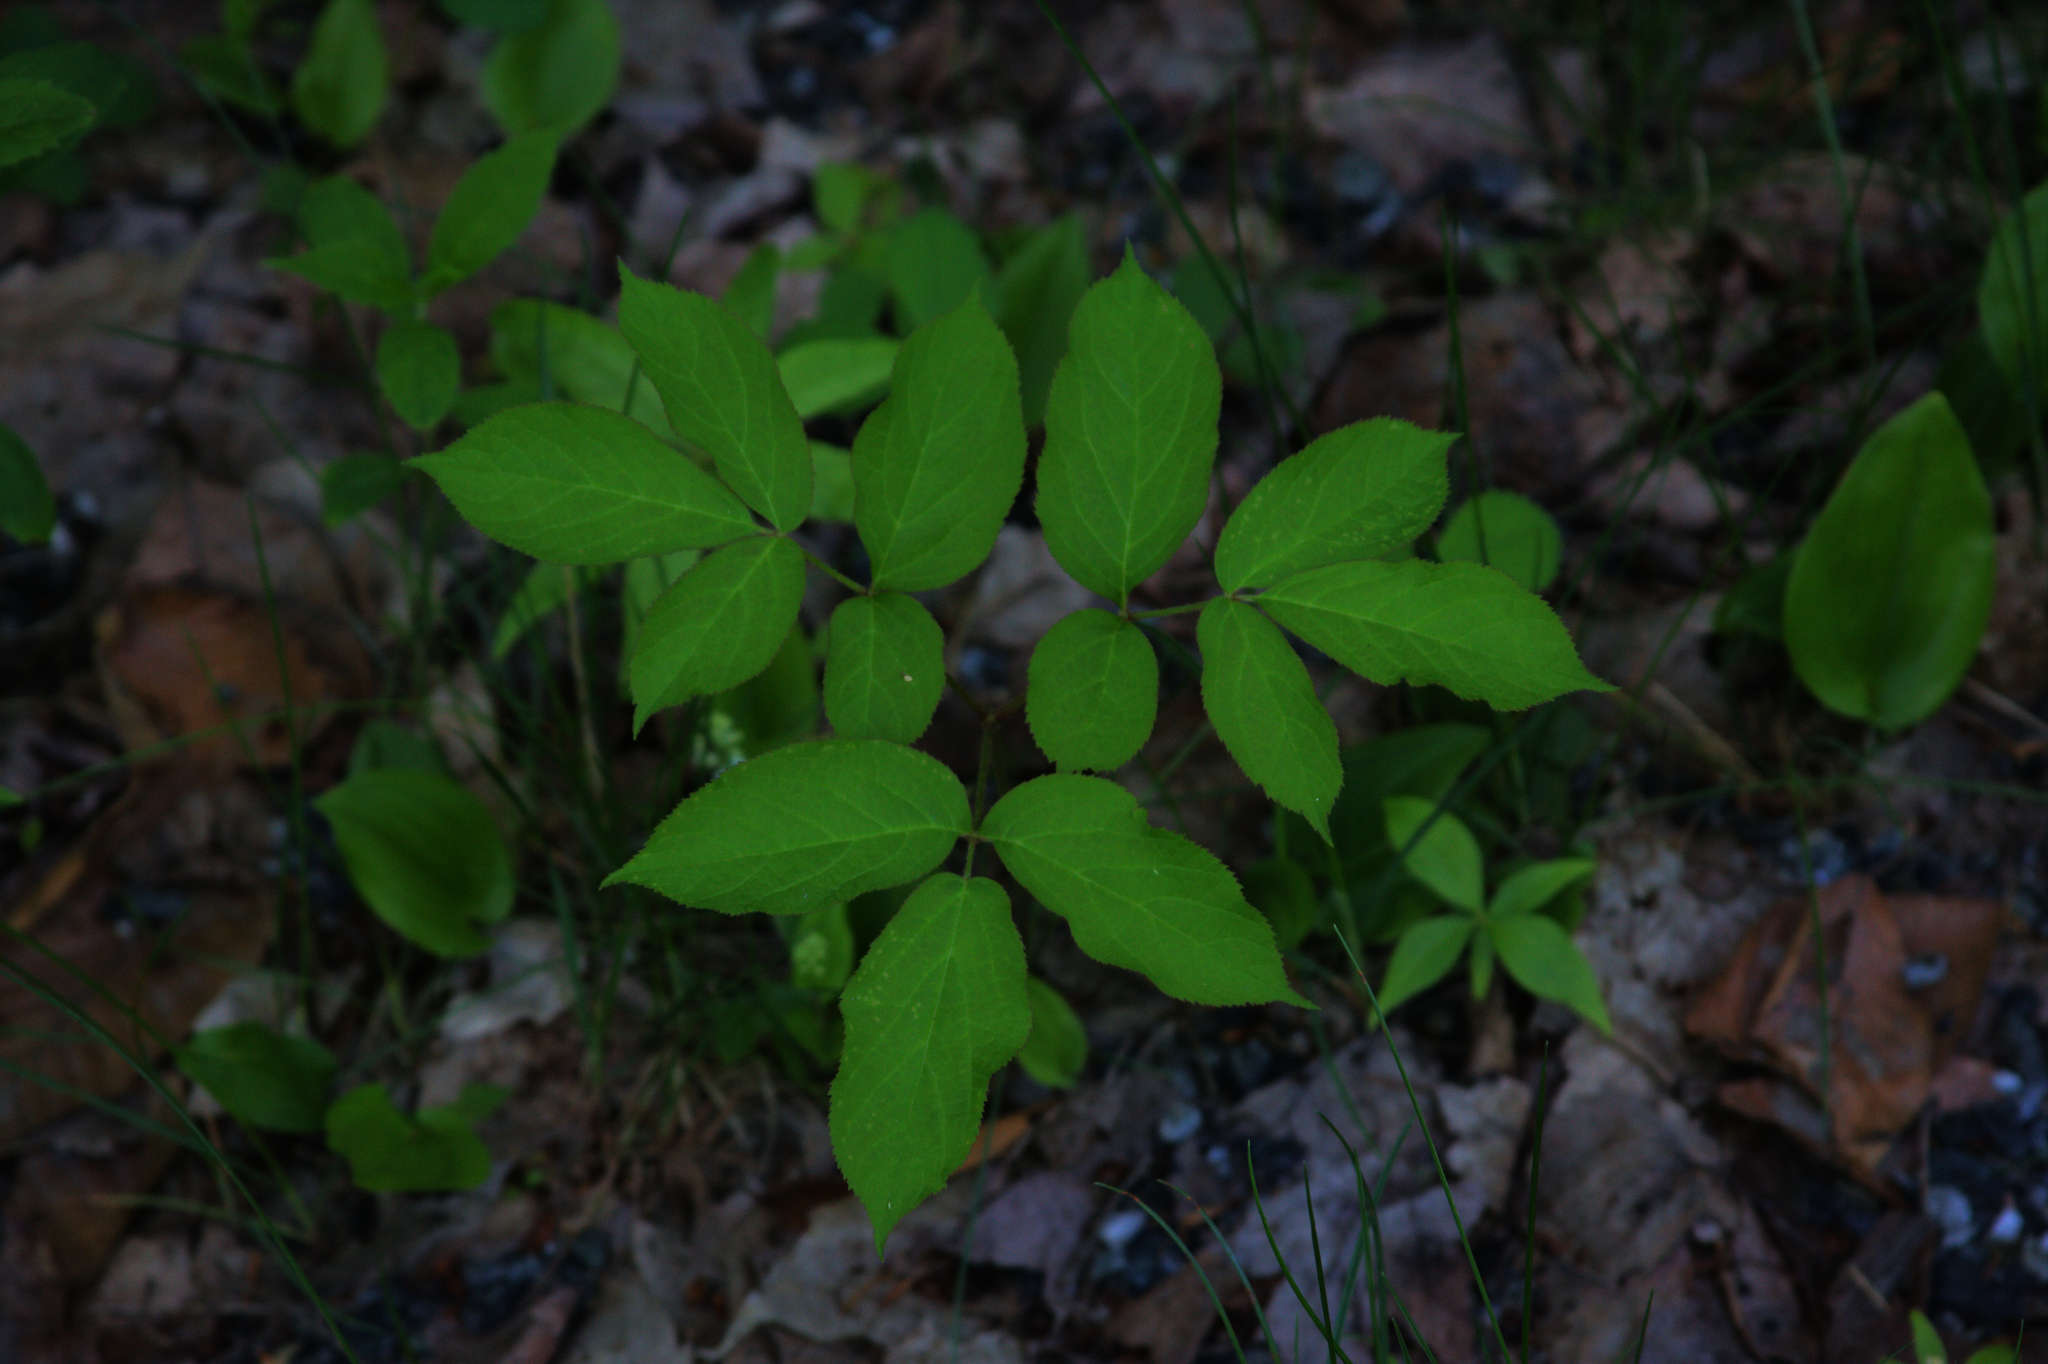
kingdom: Plantae
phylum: Tracheophyta
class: Magnoliopsida
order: Apiales
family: Araliaceae
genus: Aralia
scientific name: Aralia nudicaulis
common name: Wild sarsaparilla
